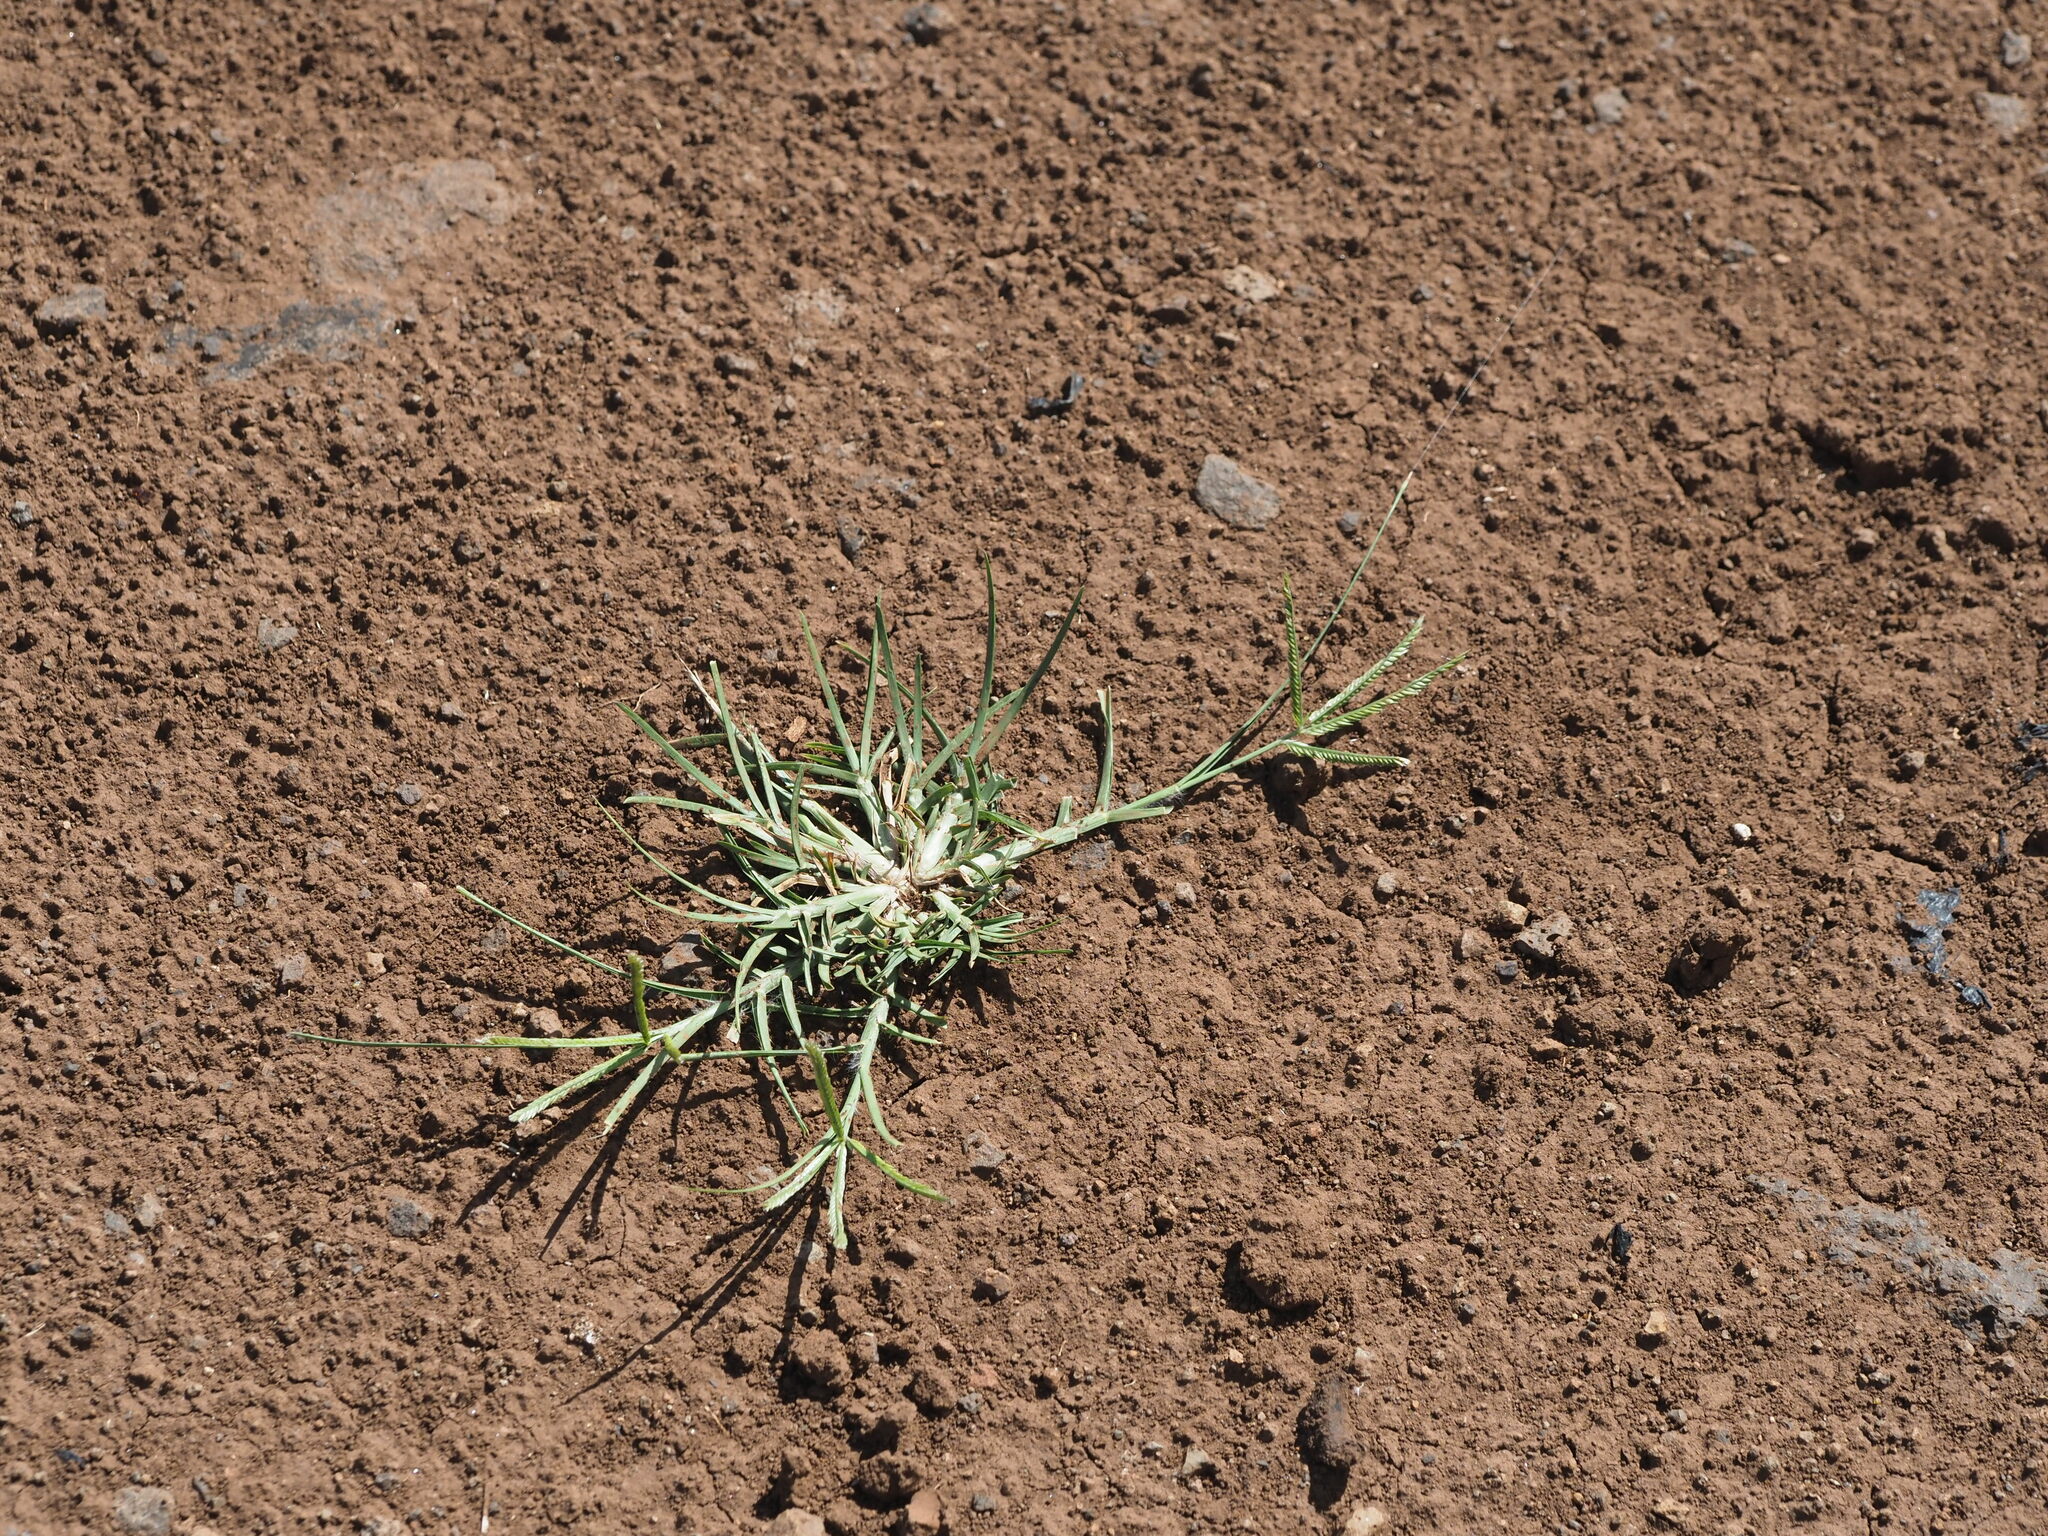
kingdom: Plantae
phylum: Tracheophyta
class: Liliopsida
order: Poales
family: Poaceae
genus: Eleusine
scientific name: Eleusine indica
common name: Yard-grass
